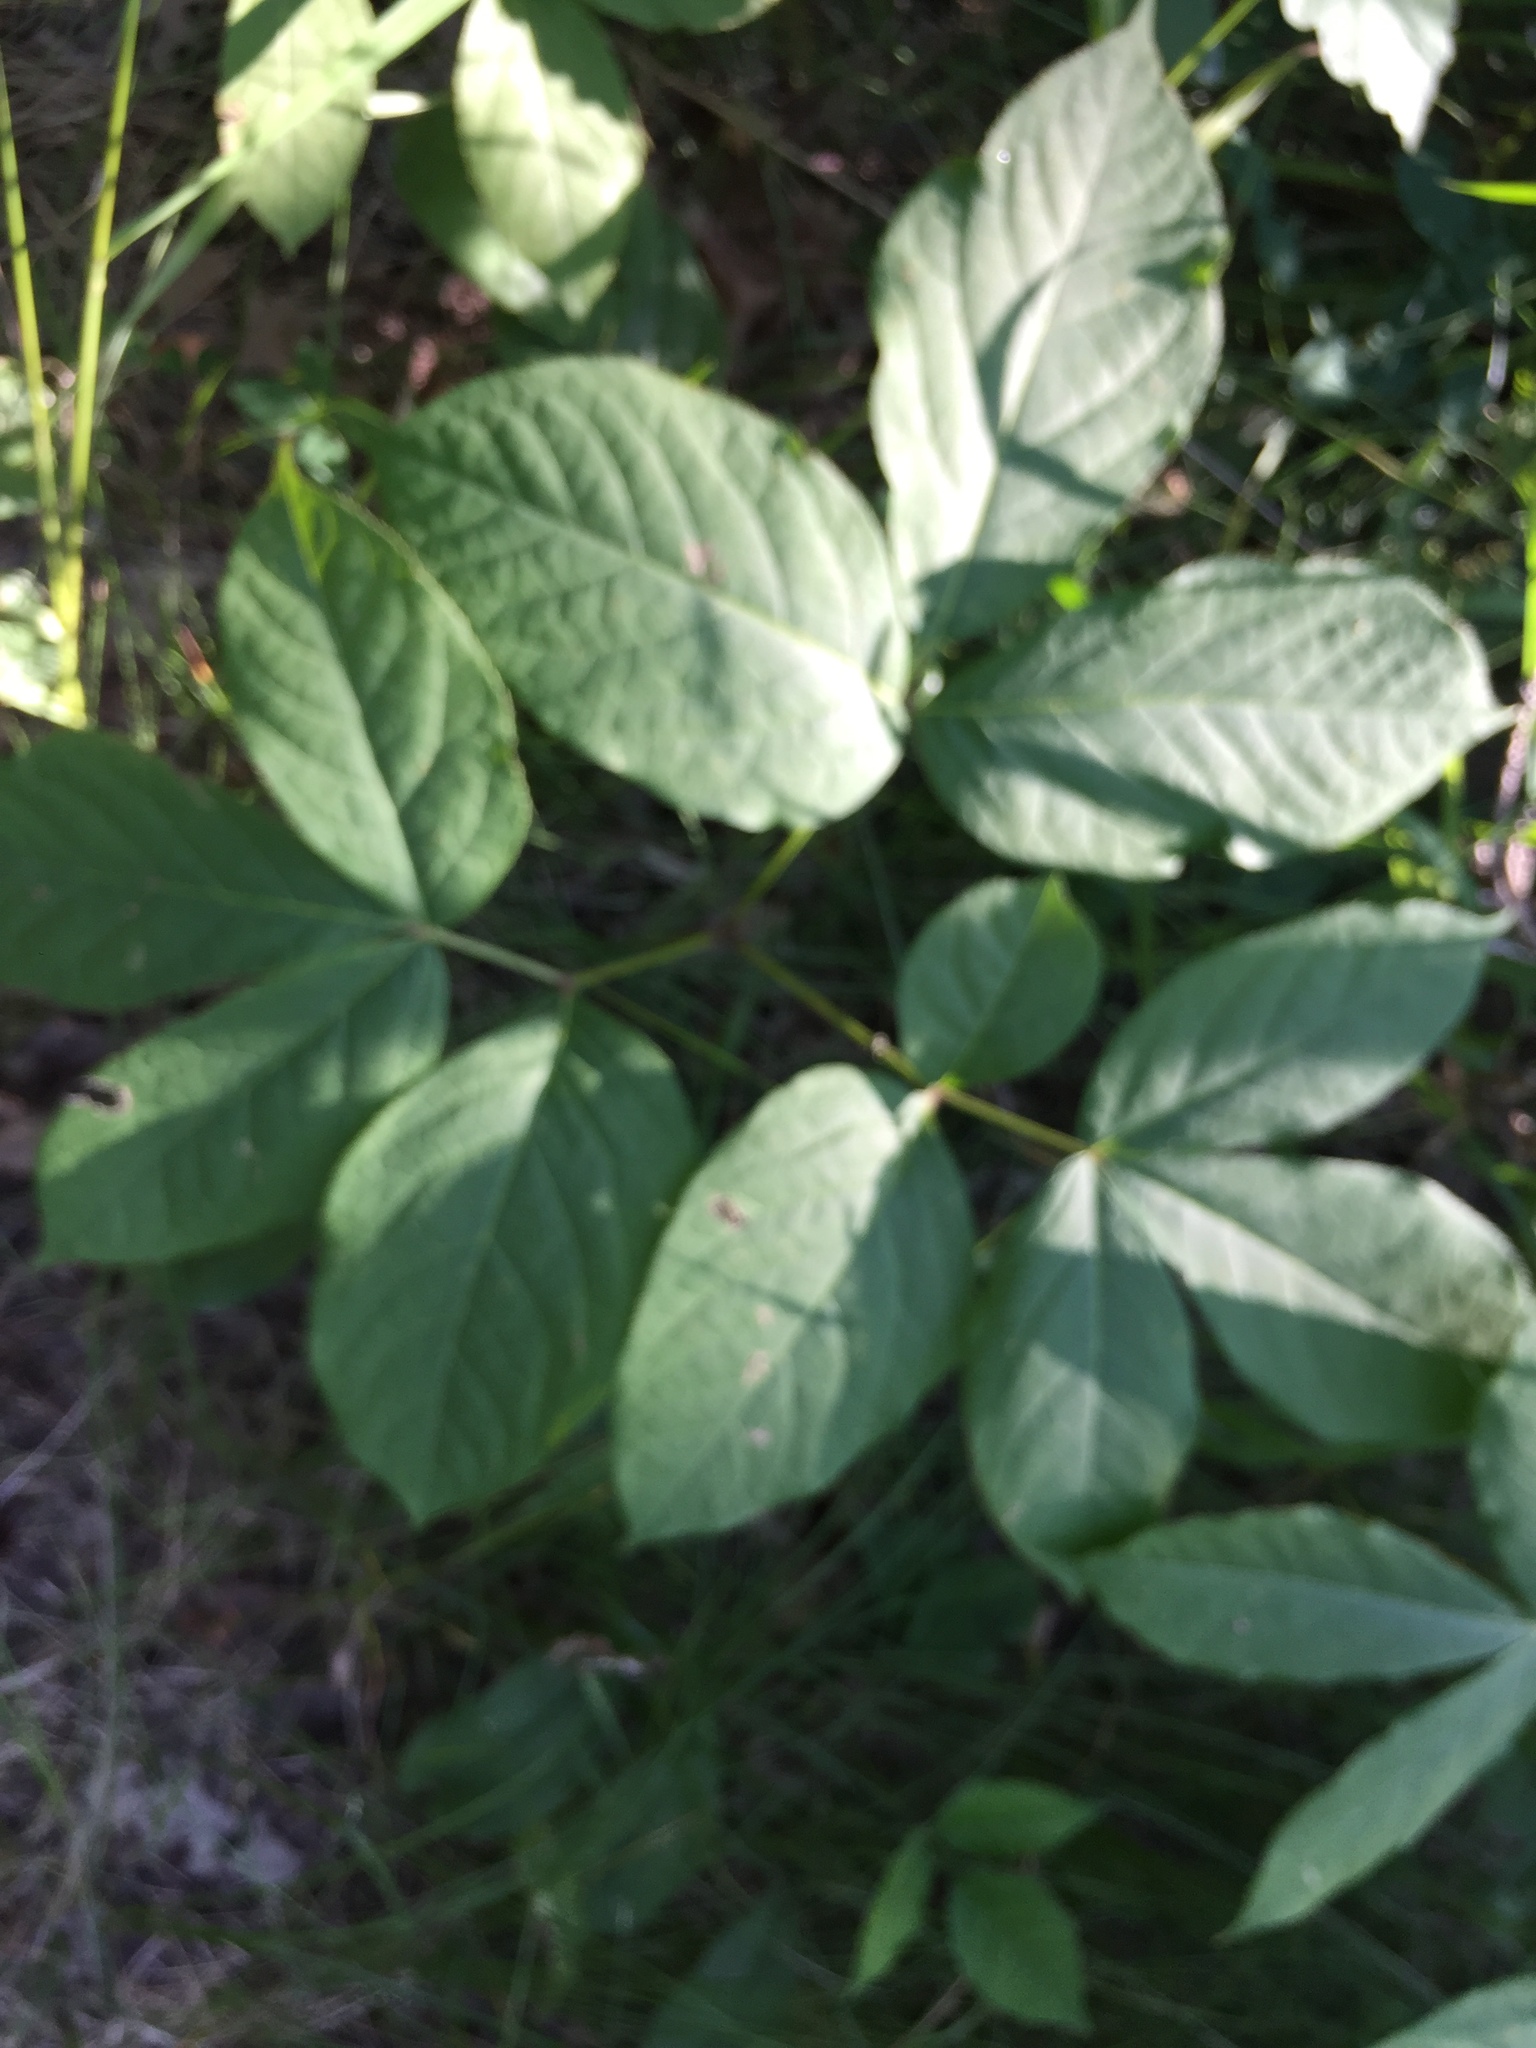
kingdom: Plantae
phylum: Tracheophyta
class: Magnoliopsida
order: Apiales
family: Araliaceae
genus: Aralia
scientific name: Aralia nudicaulis
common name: Wild sarsaparilla
